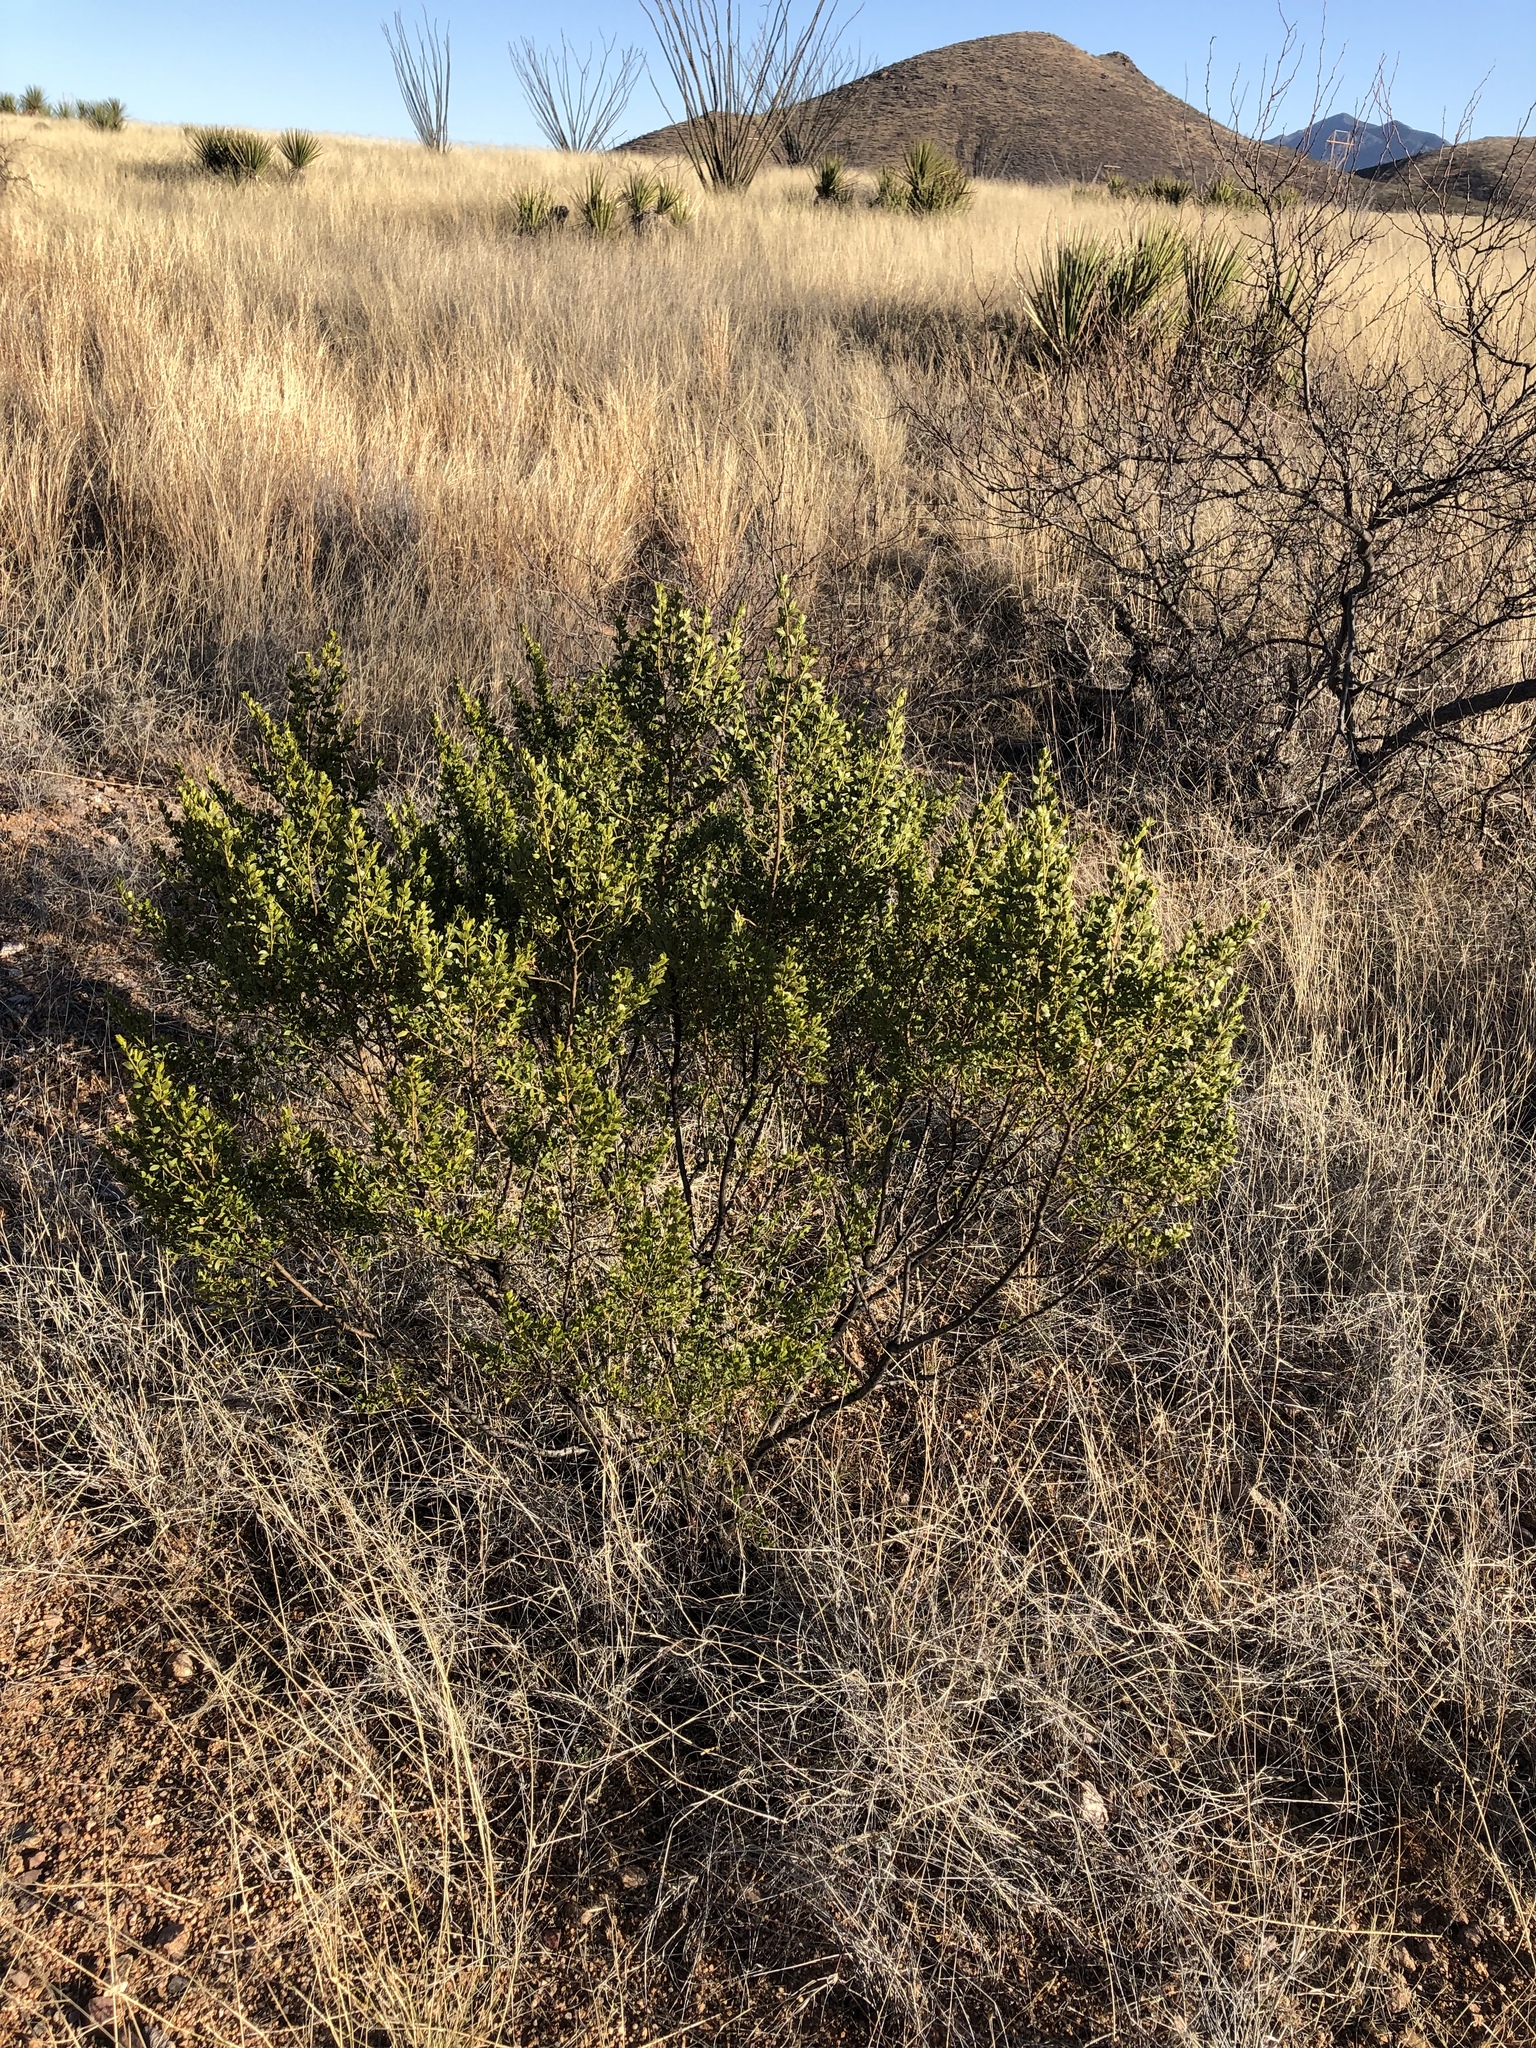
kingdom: Plantae
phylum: Tracheophyta
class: Magnoliopsida
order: Zygophyllales
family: Zygophyllaceae
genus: Larrea
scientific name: Larrea tridentata
